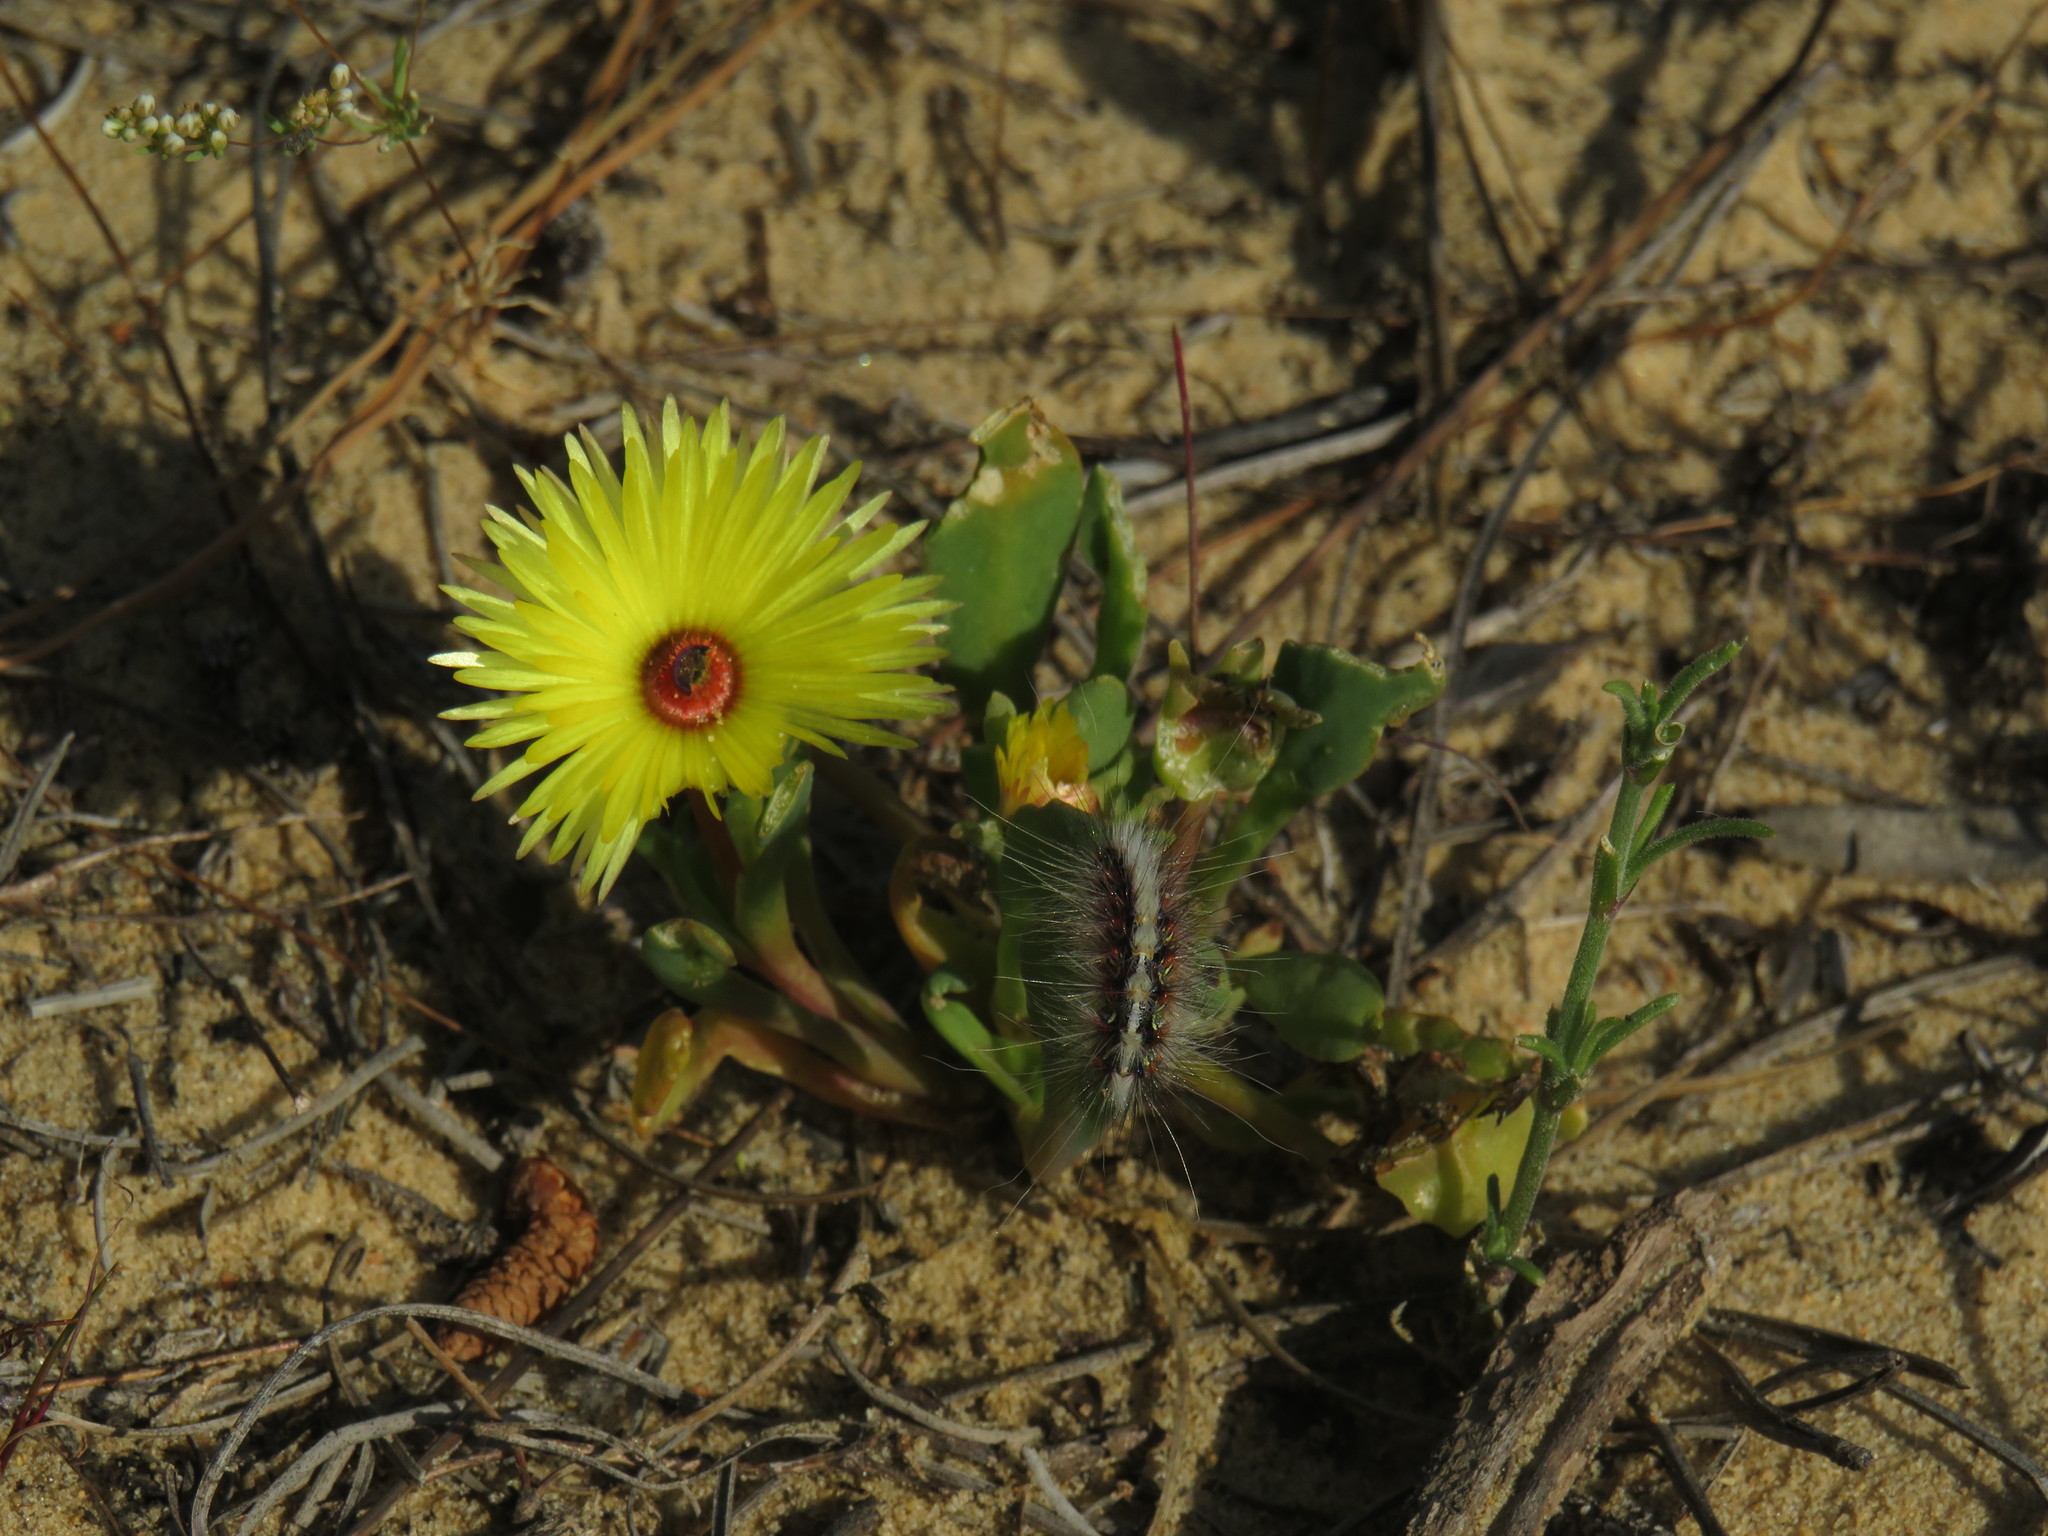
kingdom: Animalia
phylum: Arthropoda
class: Insecta
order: Lepidoptera
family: Erebidae
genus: Paralacydes
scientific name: Paralacydes vocula
